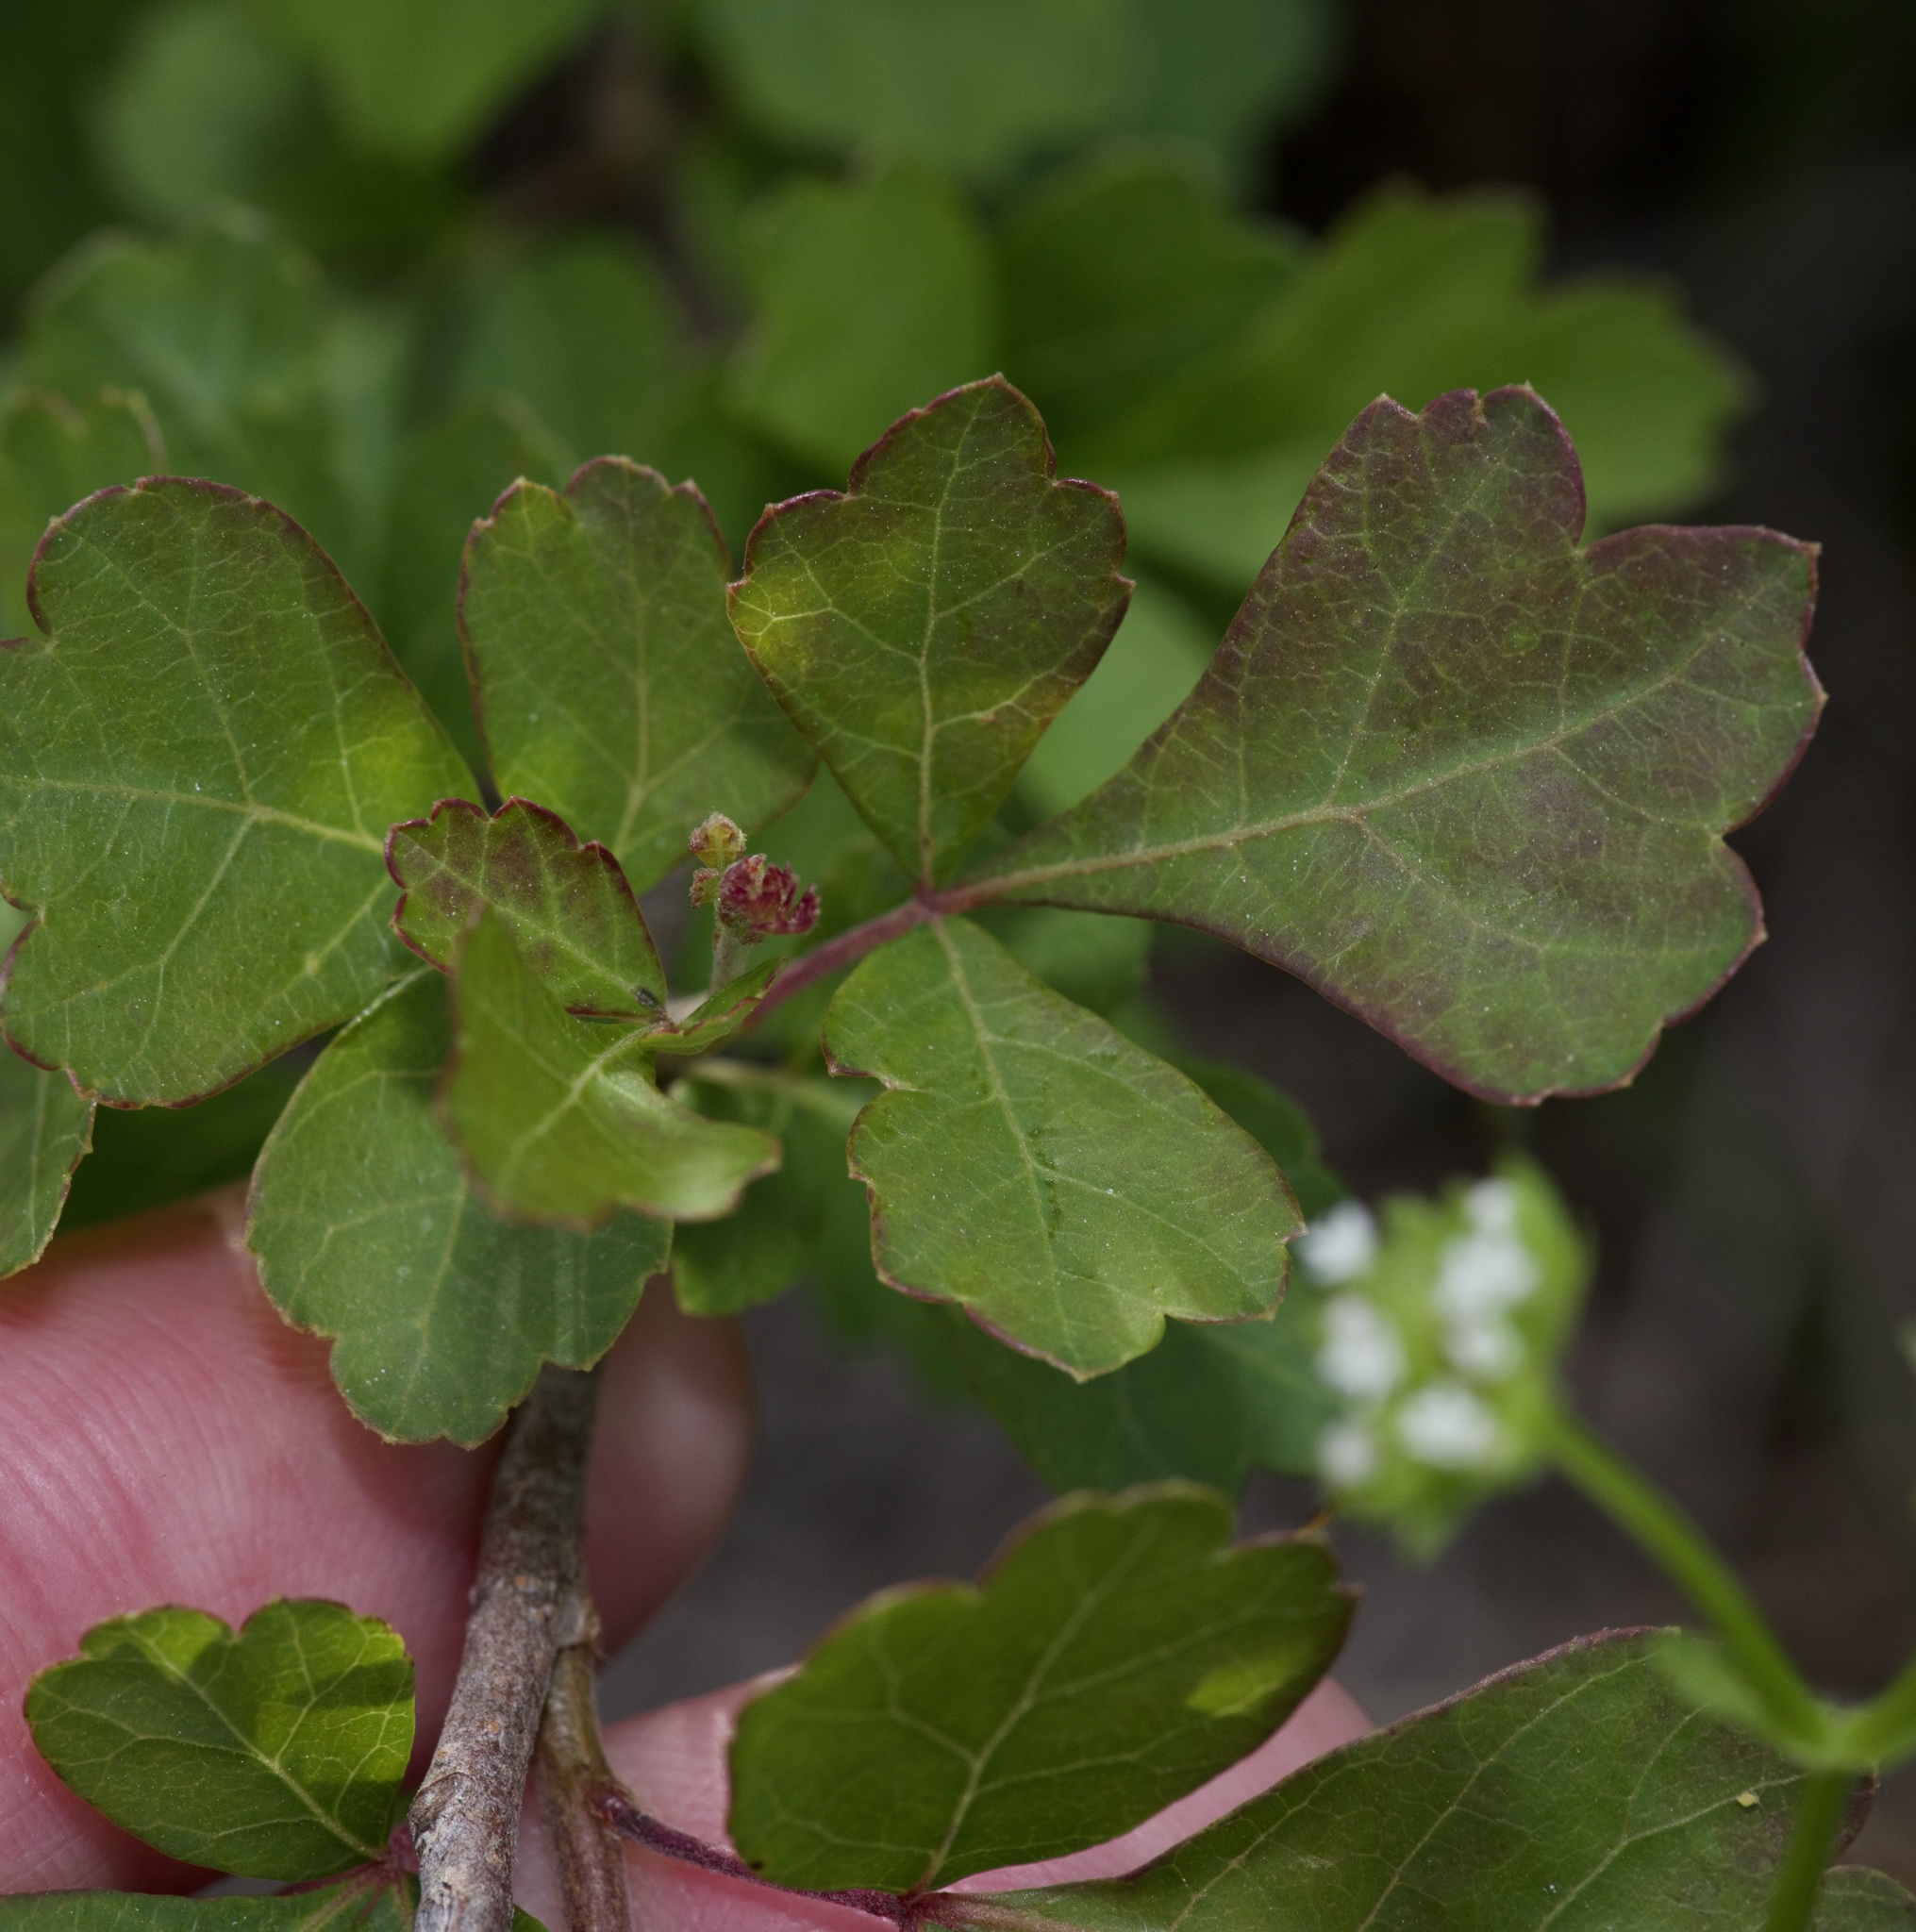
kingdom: Plantae
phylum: Tracheophyta
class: Magnoliopsida
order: Sapindales
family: Anacardiaceae
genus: Rhus
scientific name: Rhus aromatica
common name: Aromatic sumac
